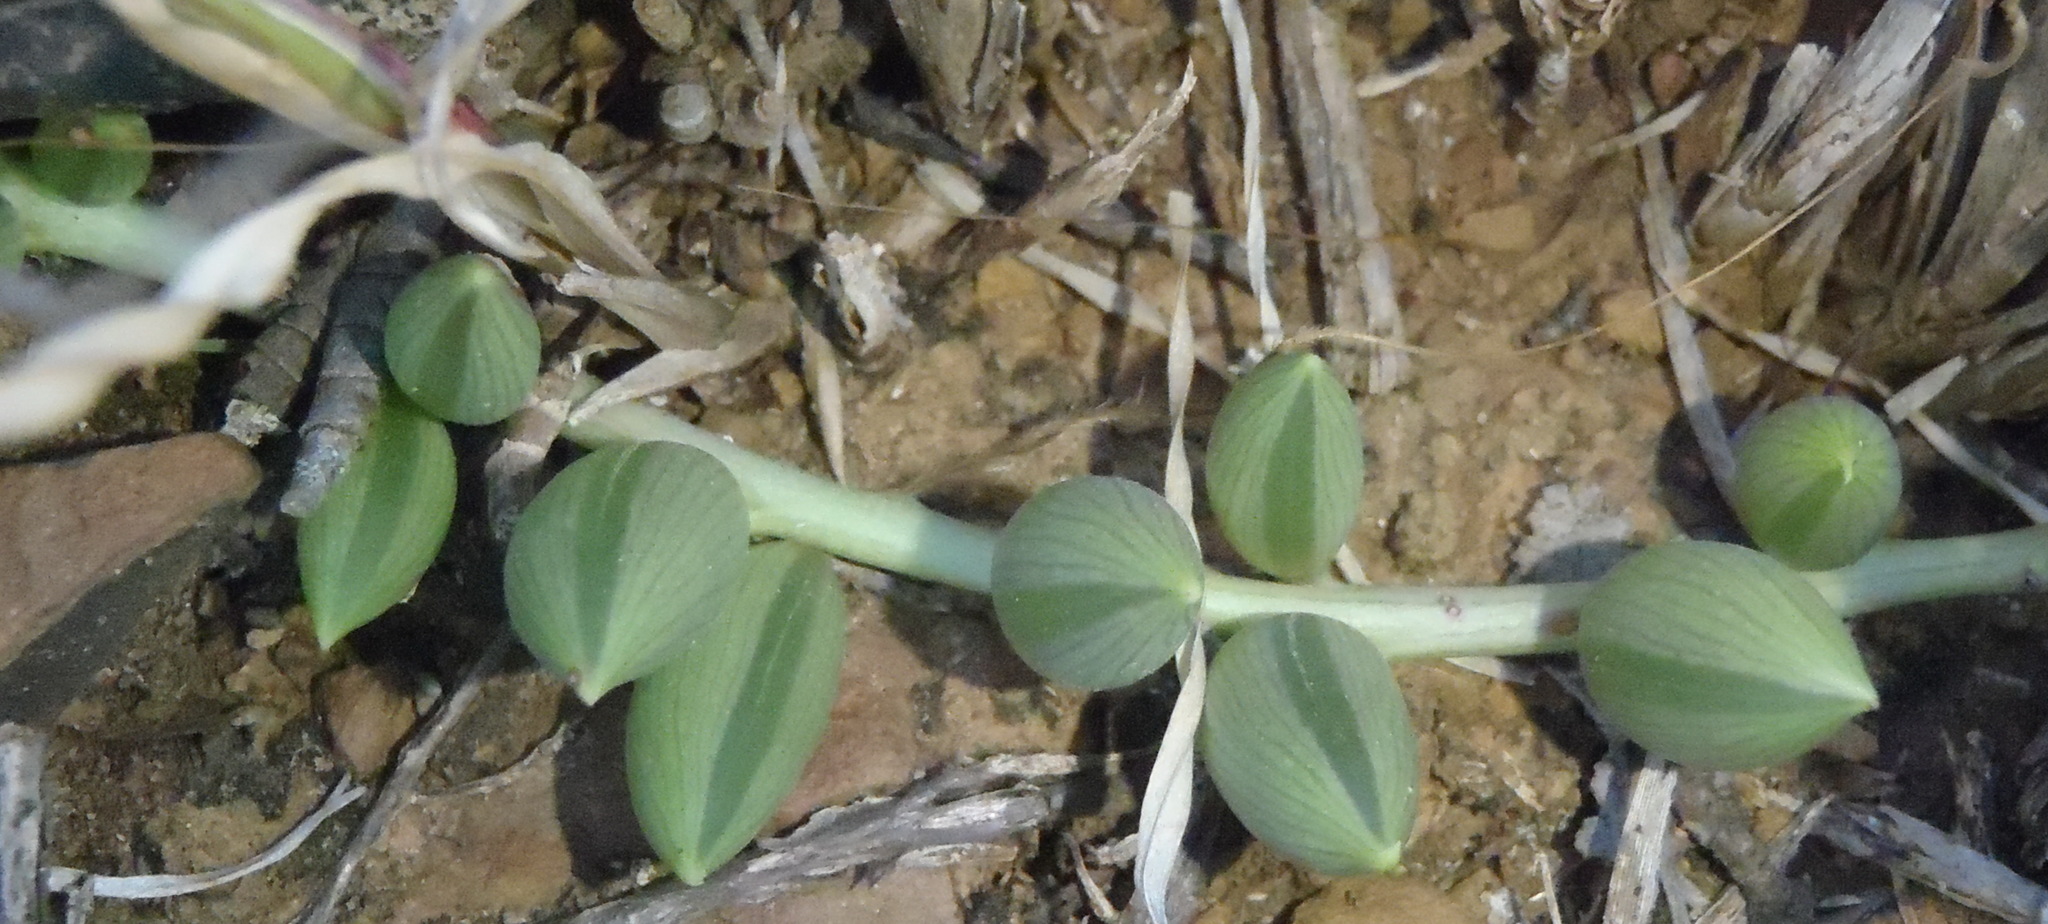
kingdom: Plantae
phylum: Tracheophyta
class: Magnoliopsida
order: Asterales
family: Asteraceae
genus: Curio
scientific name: Curio radicans
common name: Creeping-berry
